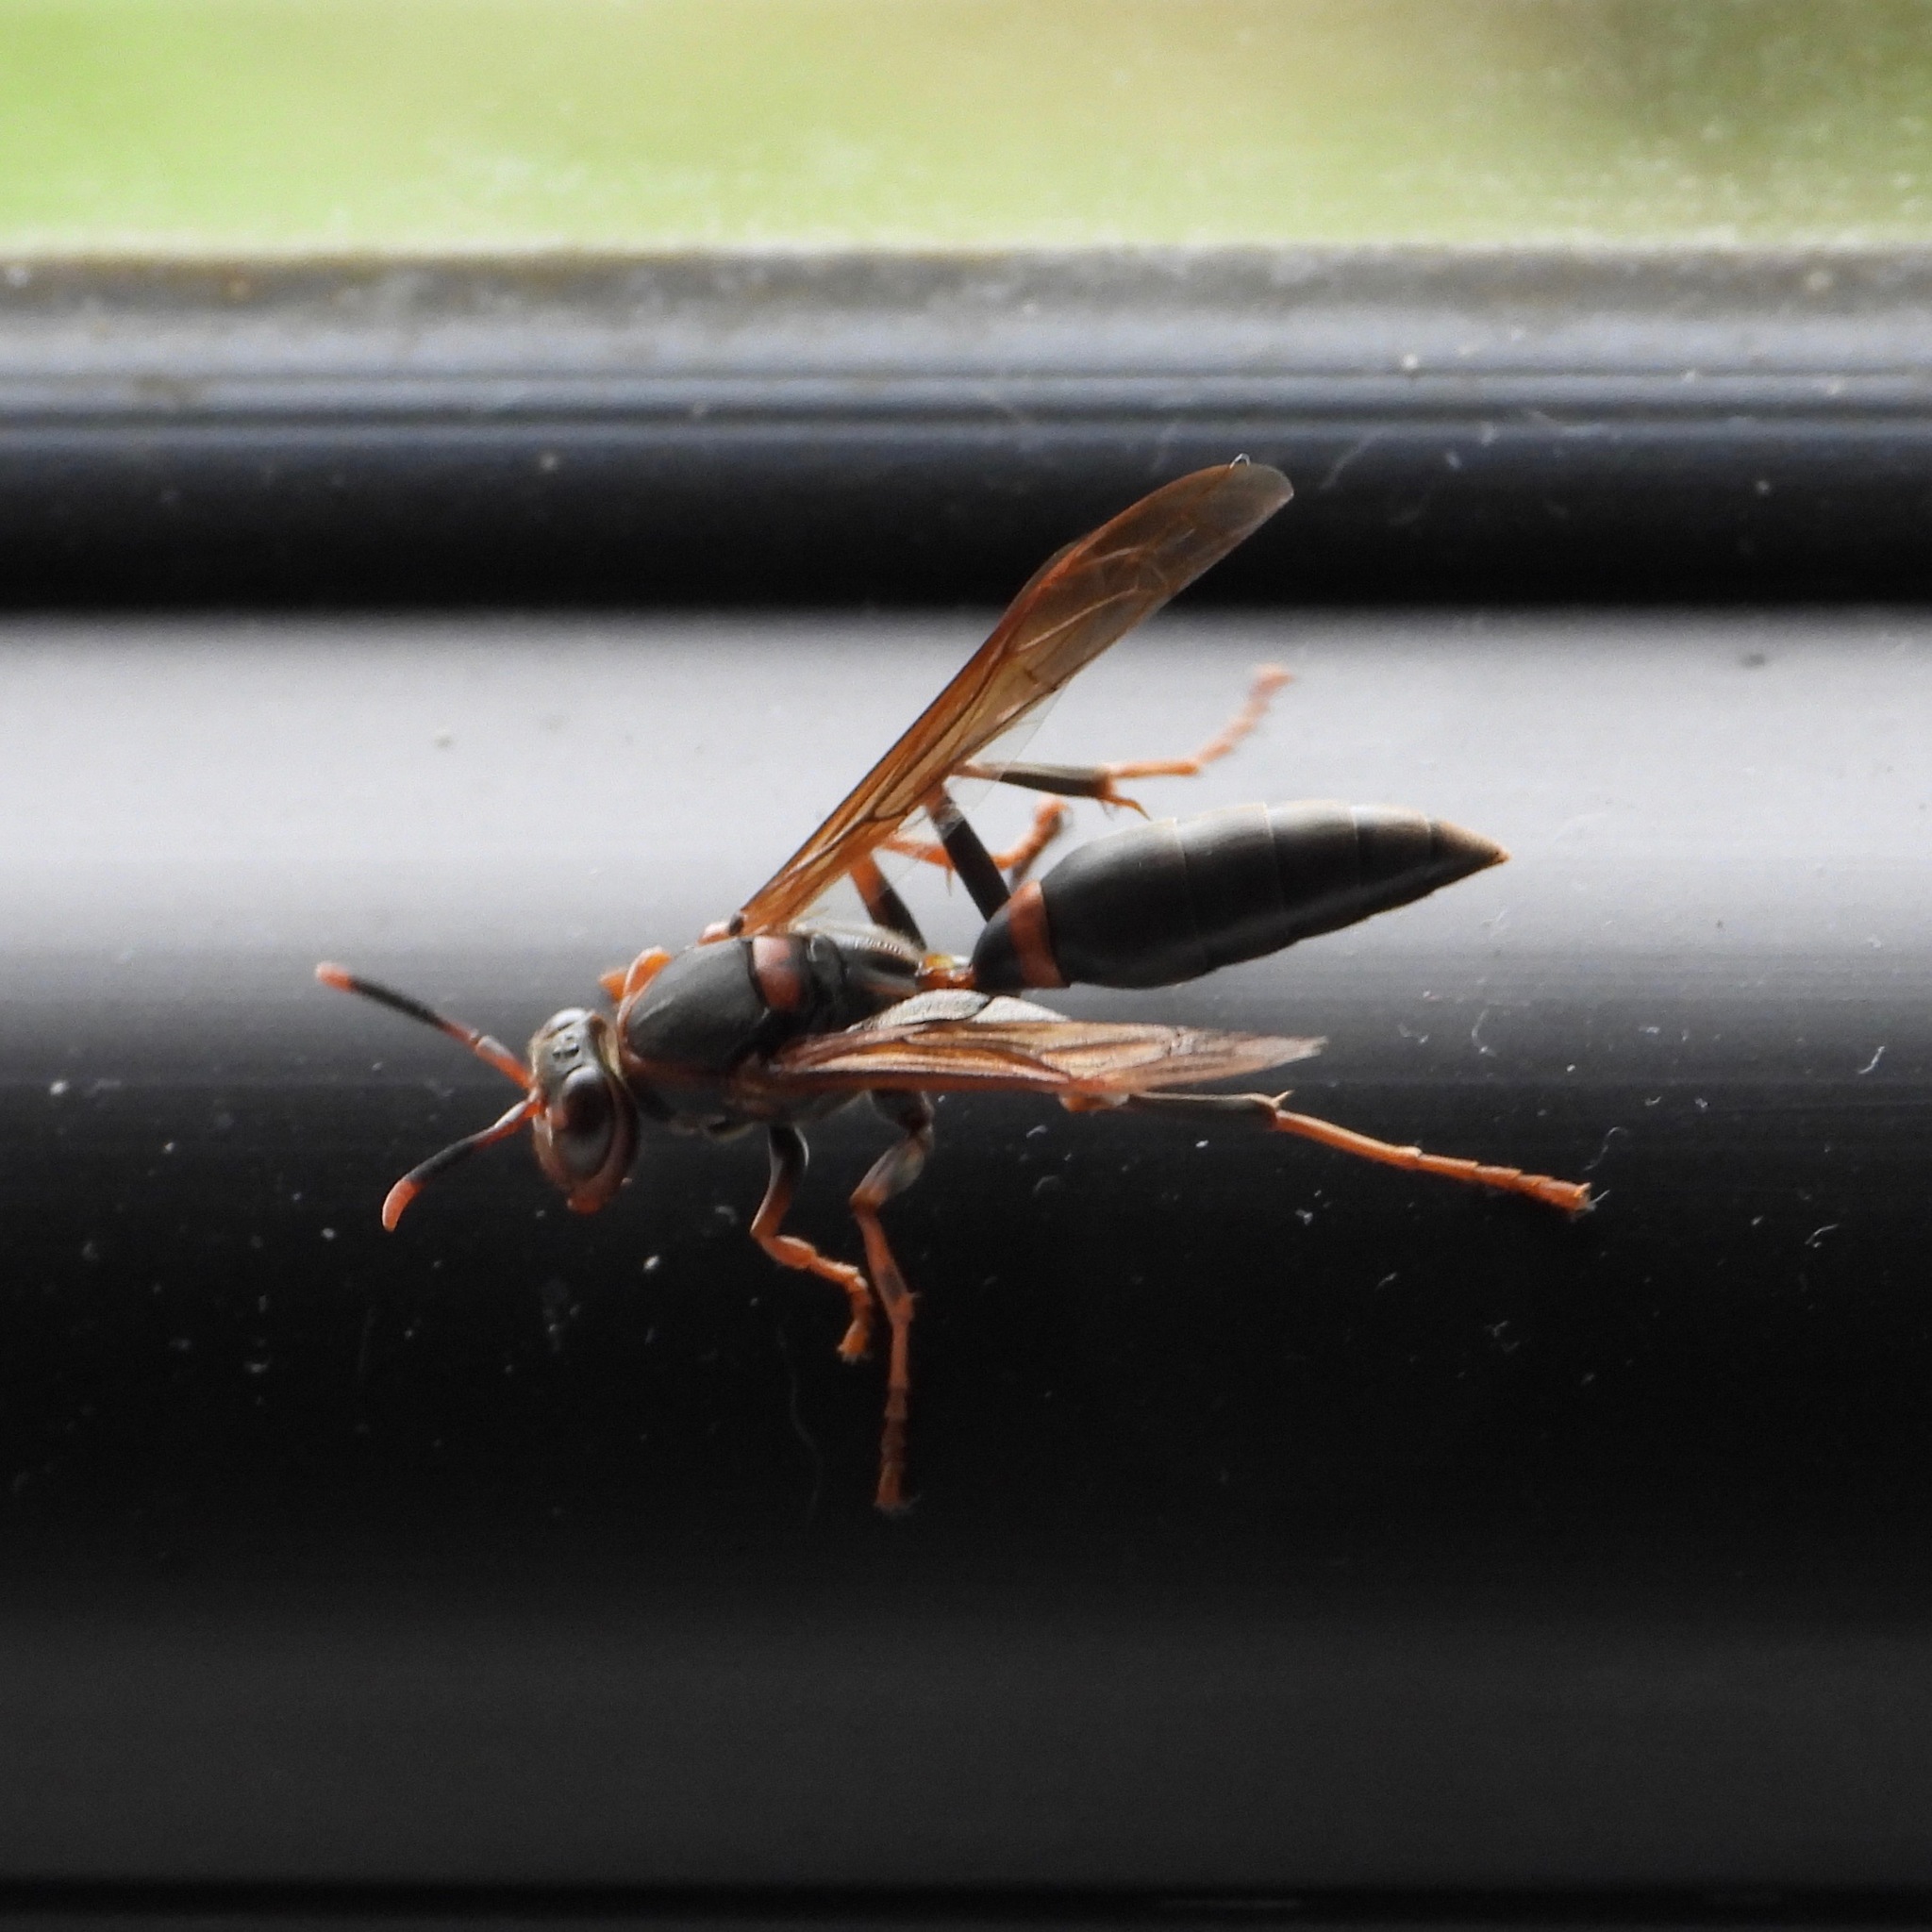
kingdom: Animalia
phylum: Arthropoda
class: Insecta
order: Hymenoptera
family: Pompilidae
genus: Aphanilopterus
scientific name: Aphanilopterus
